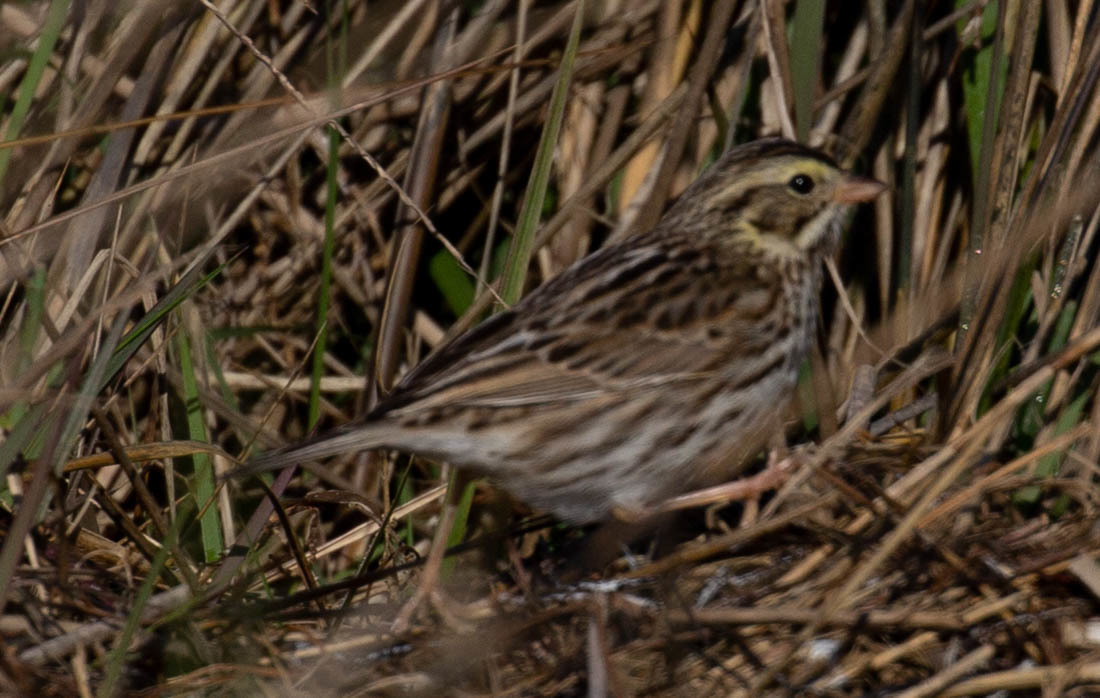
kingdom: Animalia
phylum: Chordata
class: Aves
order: Passeriformes
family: Passerellidae
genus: Passerculus
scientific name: Passerculus sandwichensis
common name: Savannah sparrow
